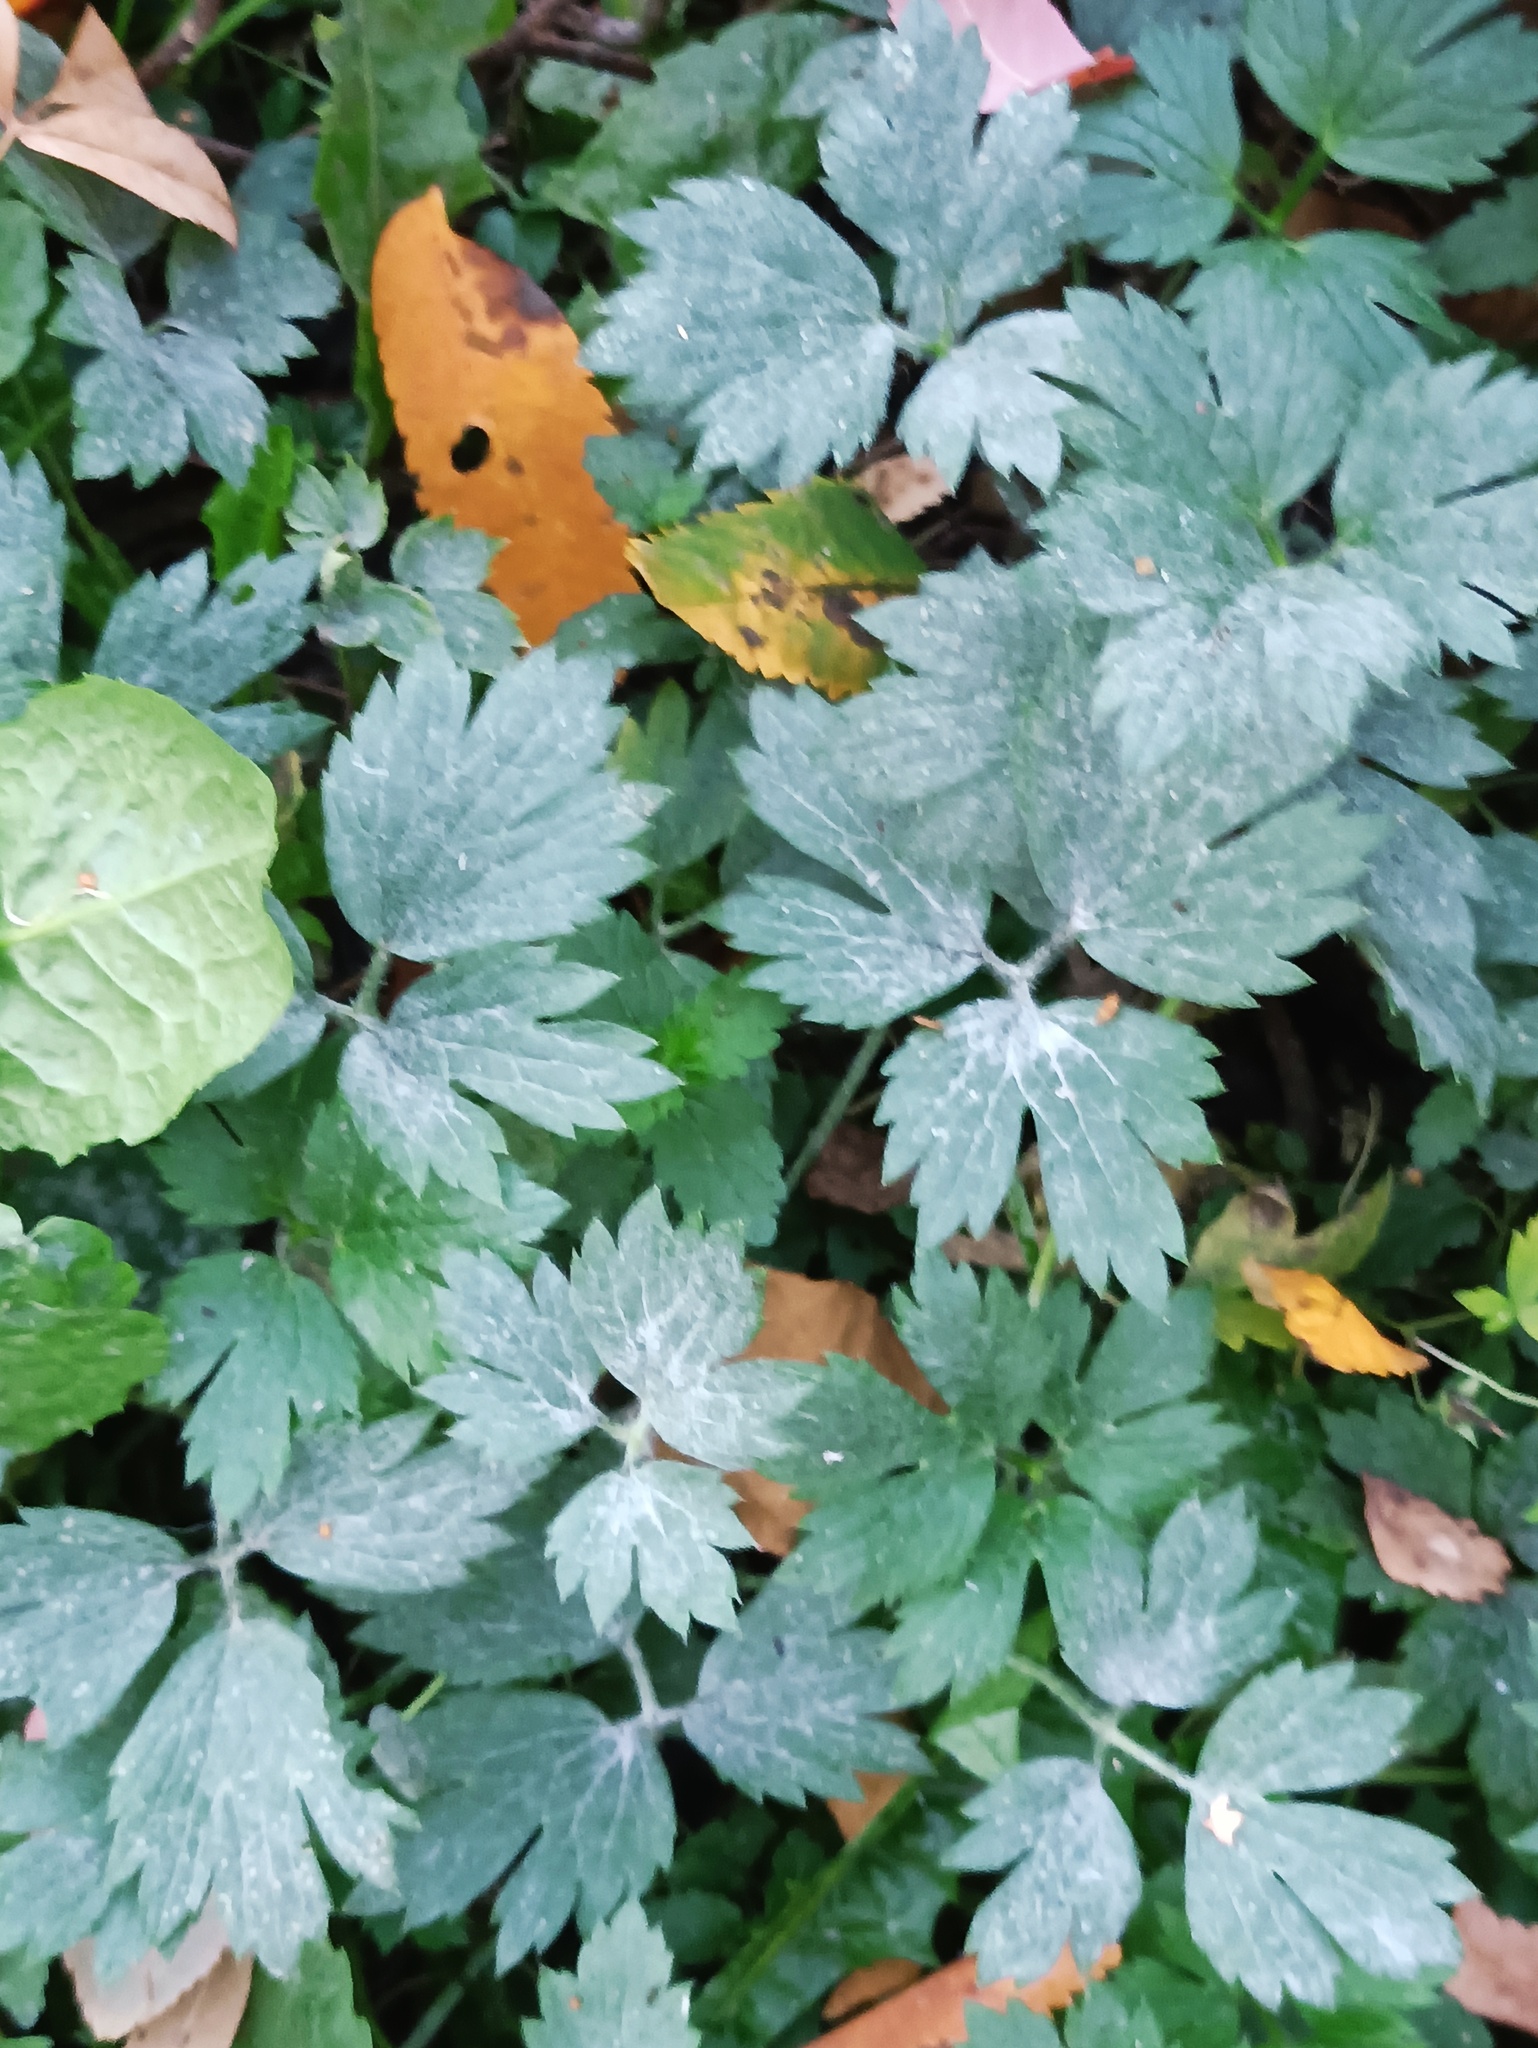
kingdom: Plantae
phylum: Tracheophyta
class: Magnoliopsida
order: Ranunculales
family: Ranunculaceae
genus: Ranunculus
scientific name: Ranunculus repens
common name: Creeping buttercup
